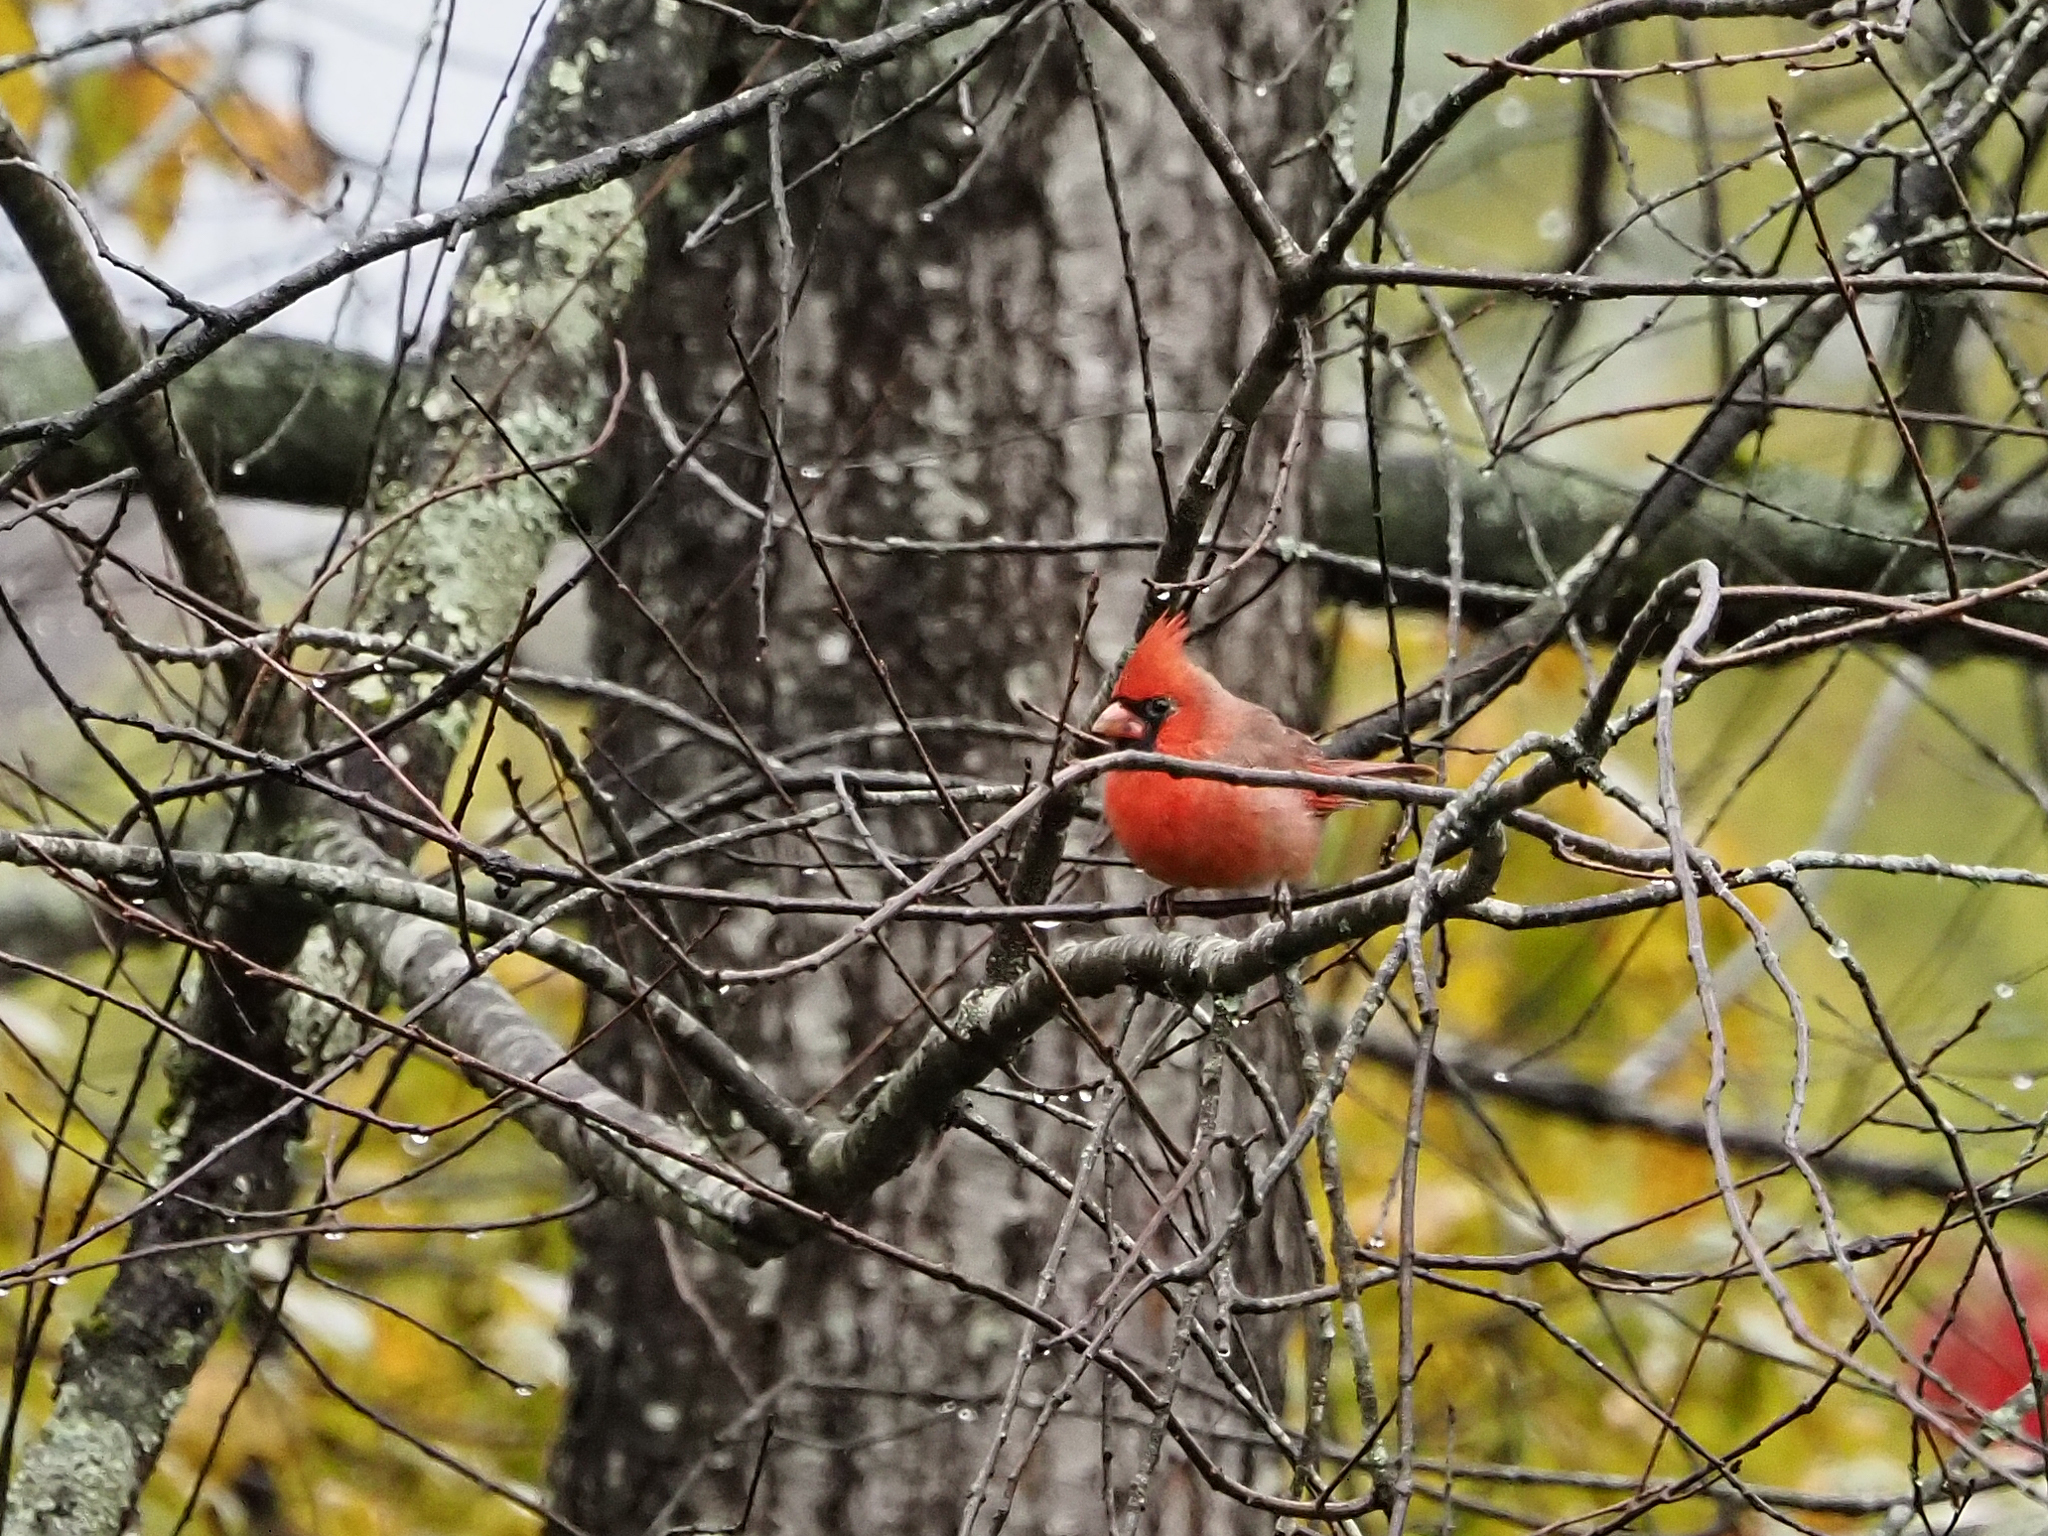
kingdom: Animalia
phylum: Chordata
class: Aves
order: Passeriformes
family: Cardinalidae
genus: Cardinalis
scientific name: Cardinalis cardinalis
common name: Northern cardinal
